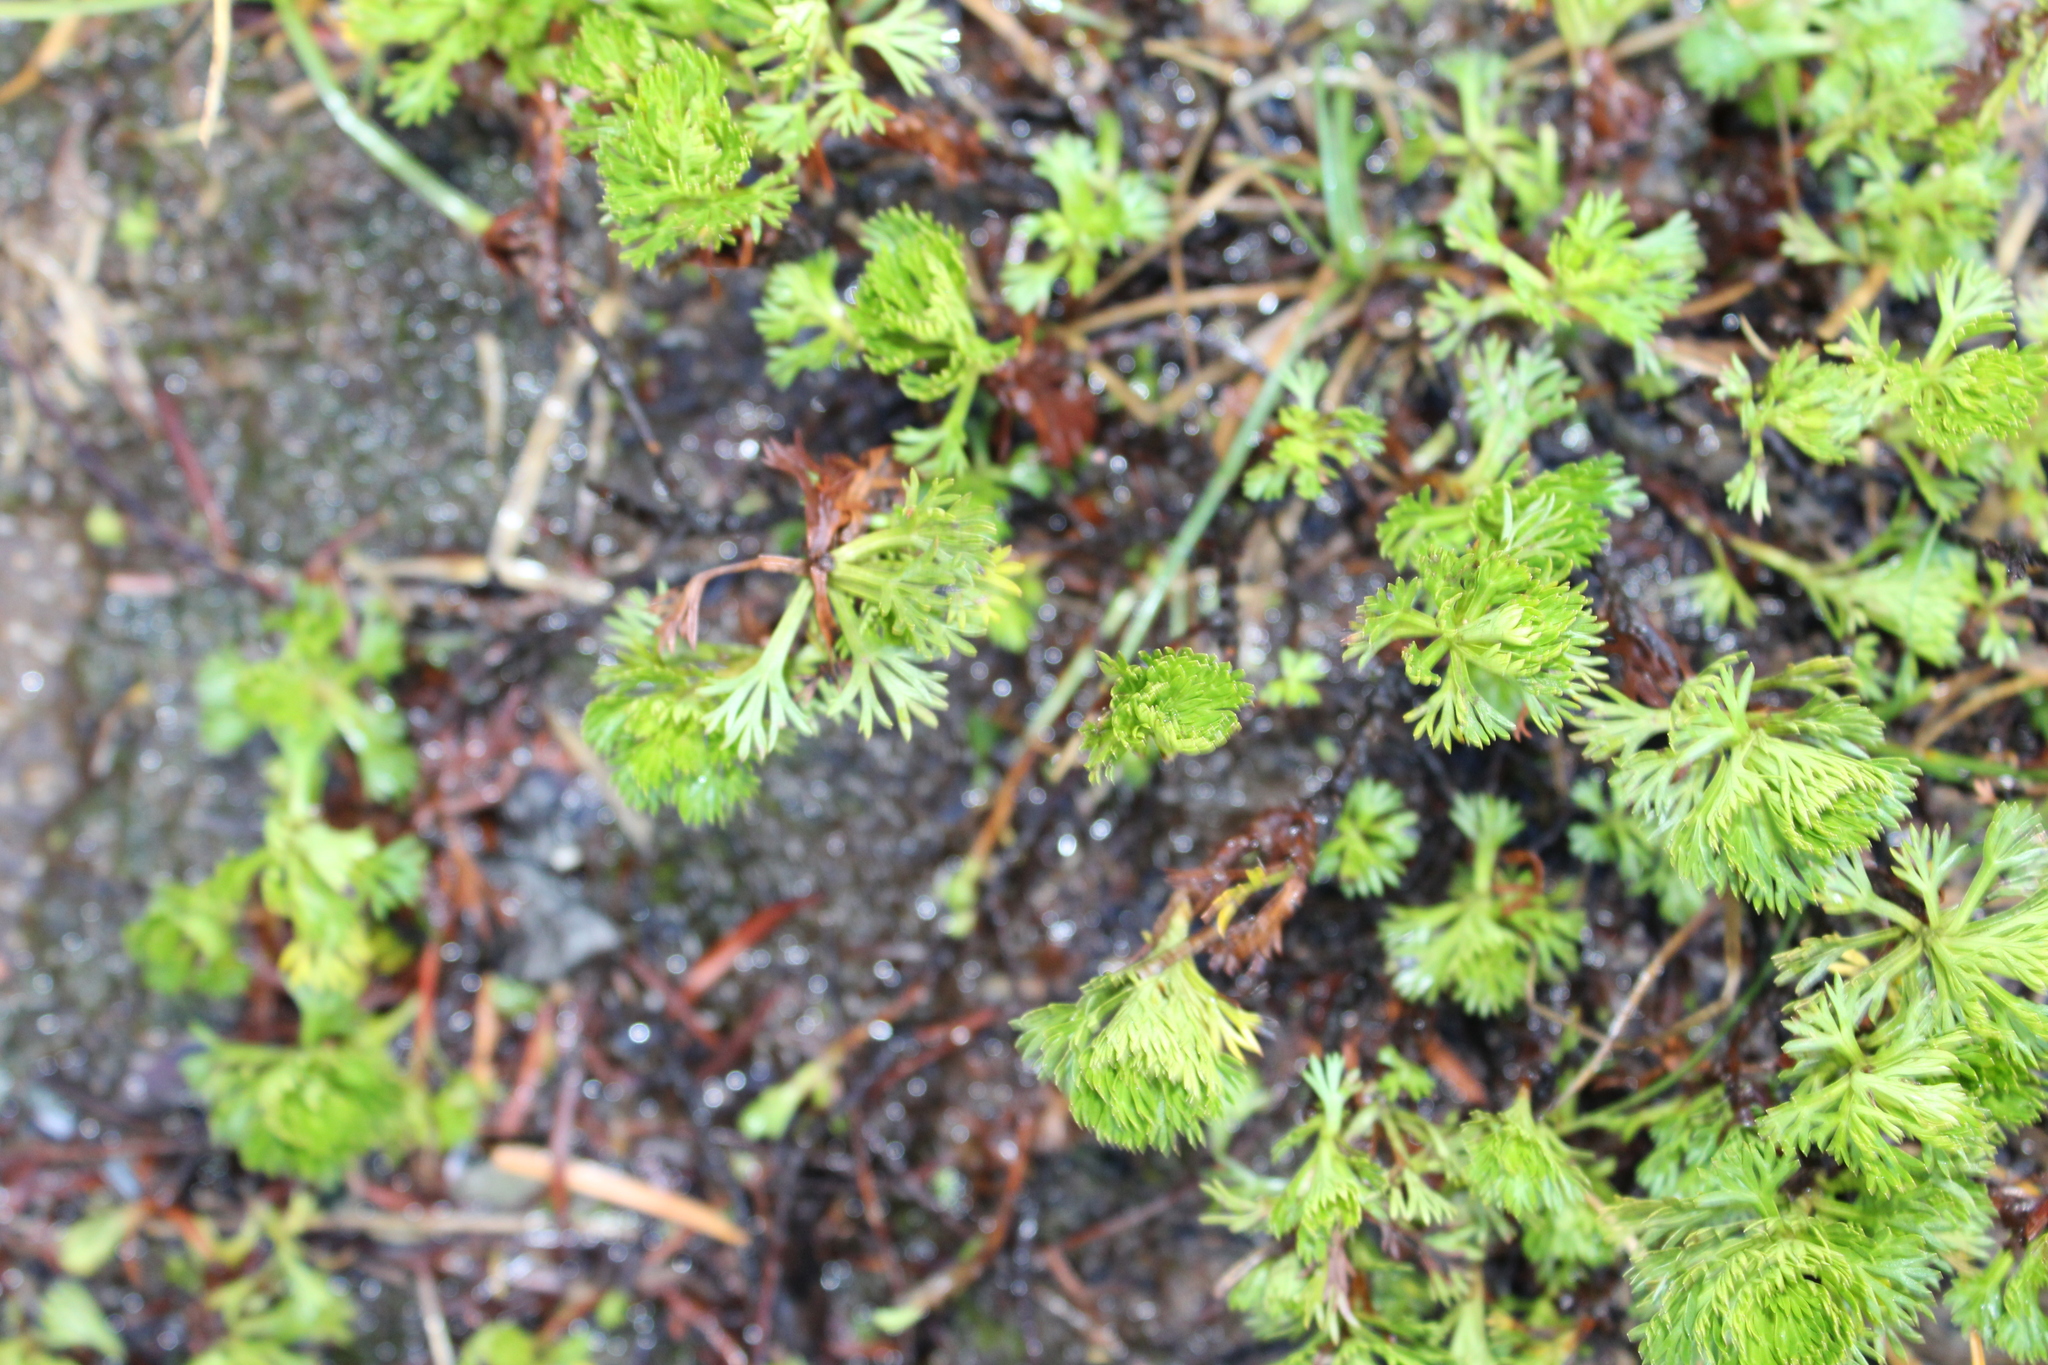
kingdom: Plantae
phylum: Tracheophyta
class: Magnoliopsida
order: Rosales
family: Rosaceae
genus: Luetkea
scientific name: Luetkea pectinata
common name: Partridgefoot
